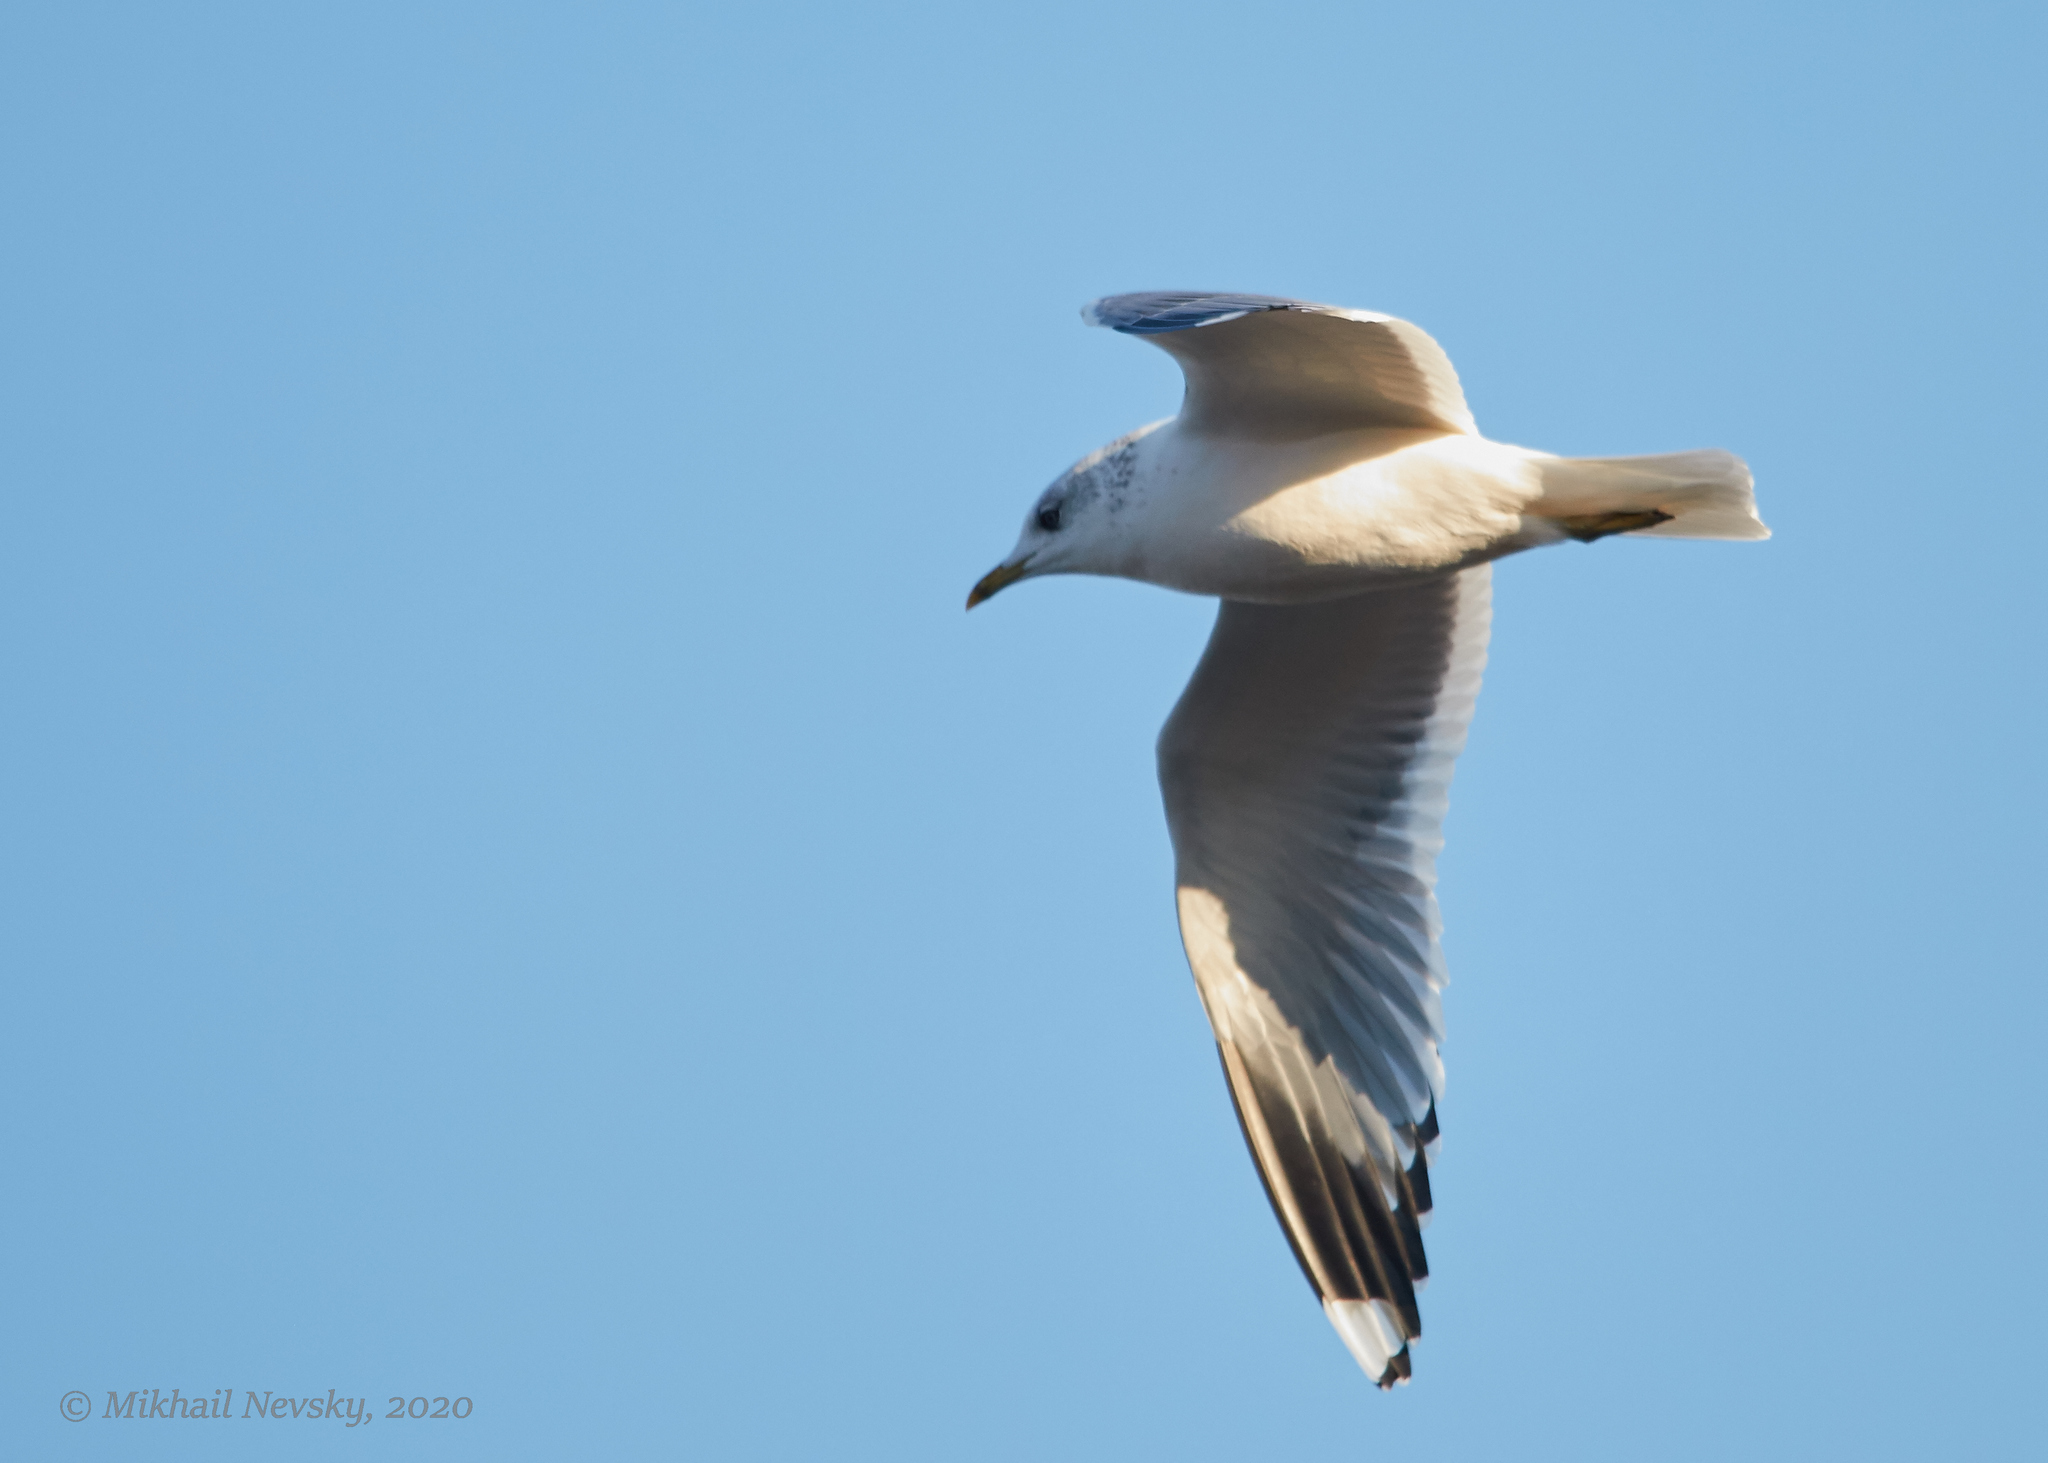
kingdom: Animalia
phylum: Chordata
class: Aves
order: Charadriiformes
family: Laridae
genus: Larus
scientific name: Larus canus
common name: Mew gull
